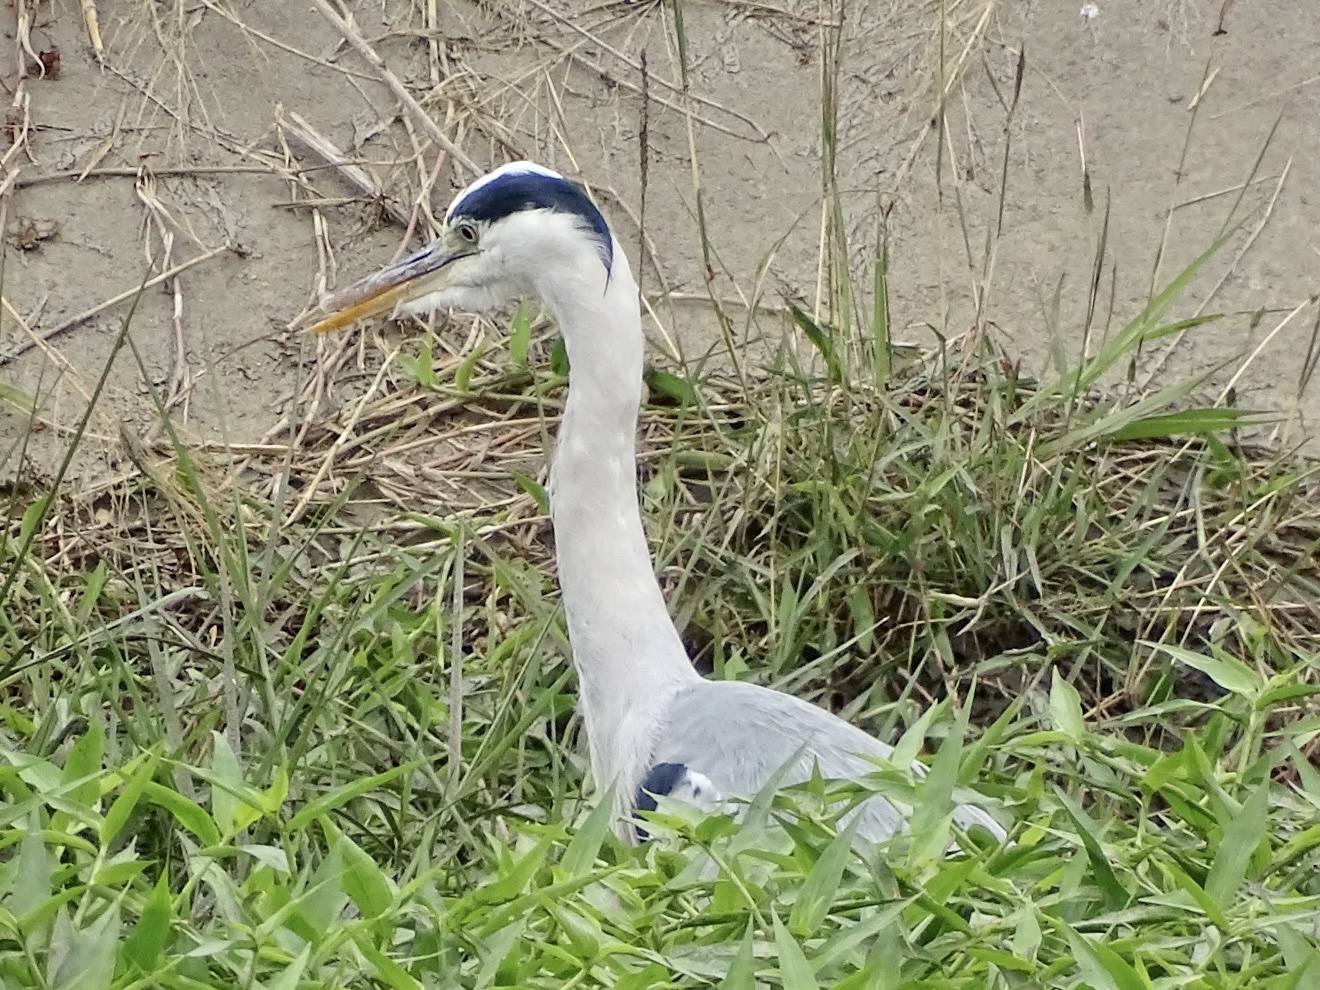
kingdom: Animalia
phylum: Chordata
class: Aves
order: Pelecaniformes
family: Ardeidae
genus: Ardea
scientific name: Ardea cinerea
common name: Grey heron
